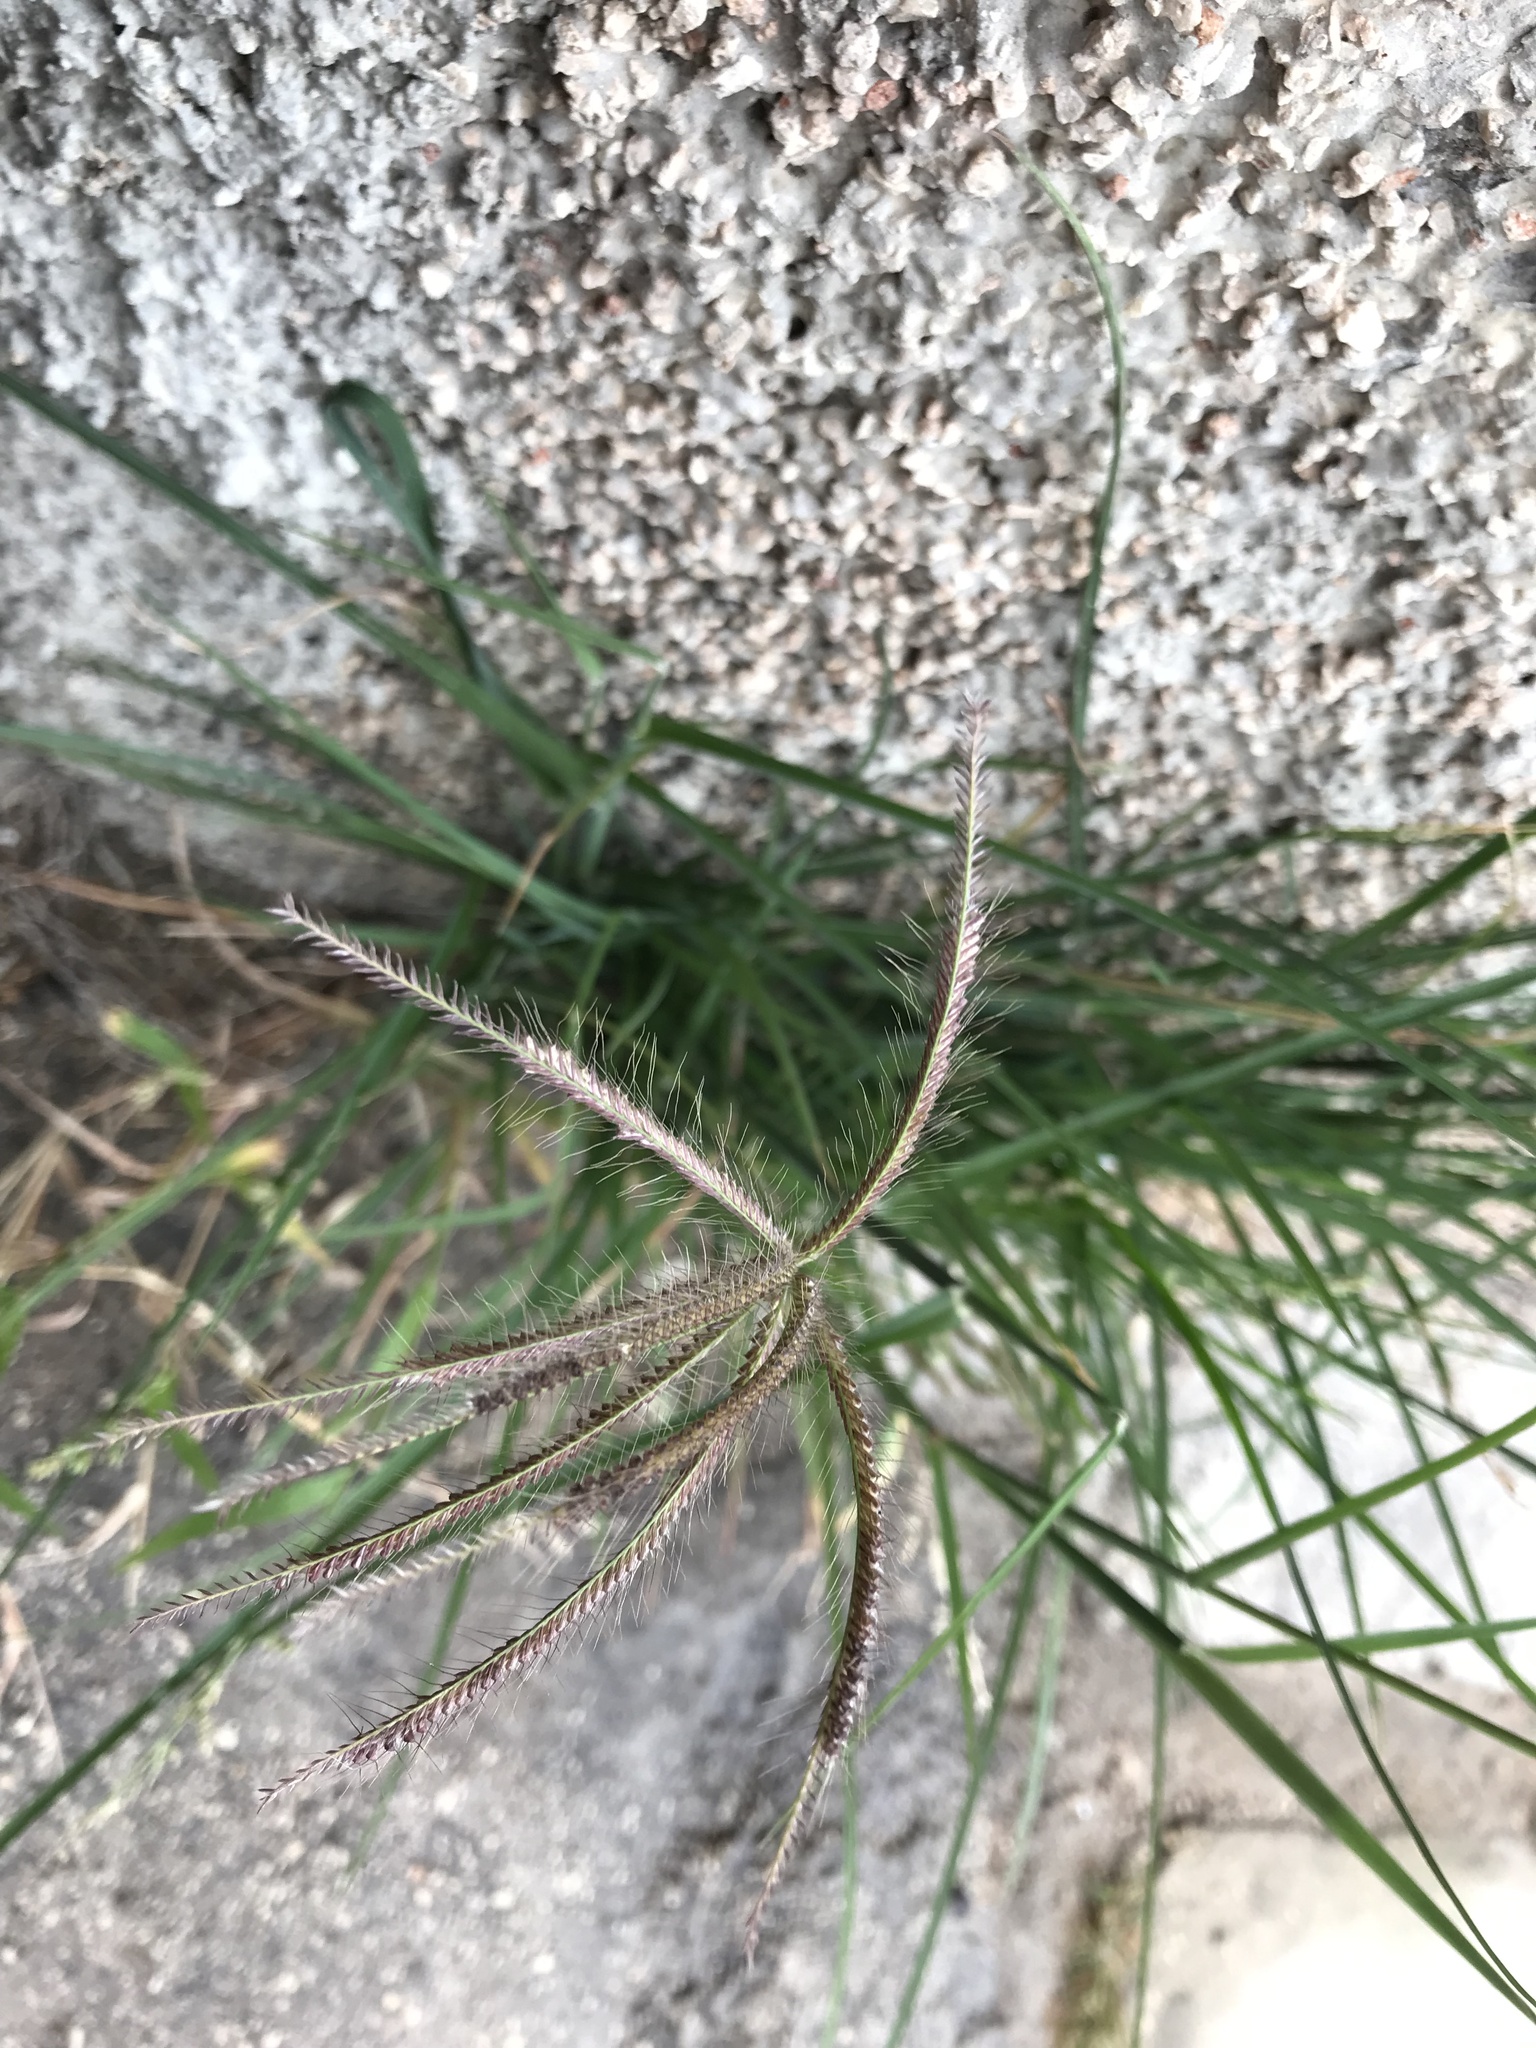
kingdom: Plantae
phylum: Tracheophyta
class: Liliopsida
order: Poales
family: Poaceae
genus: Chloris
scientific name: Chloris barbata
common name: Swollen fingergrass
